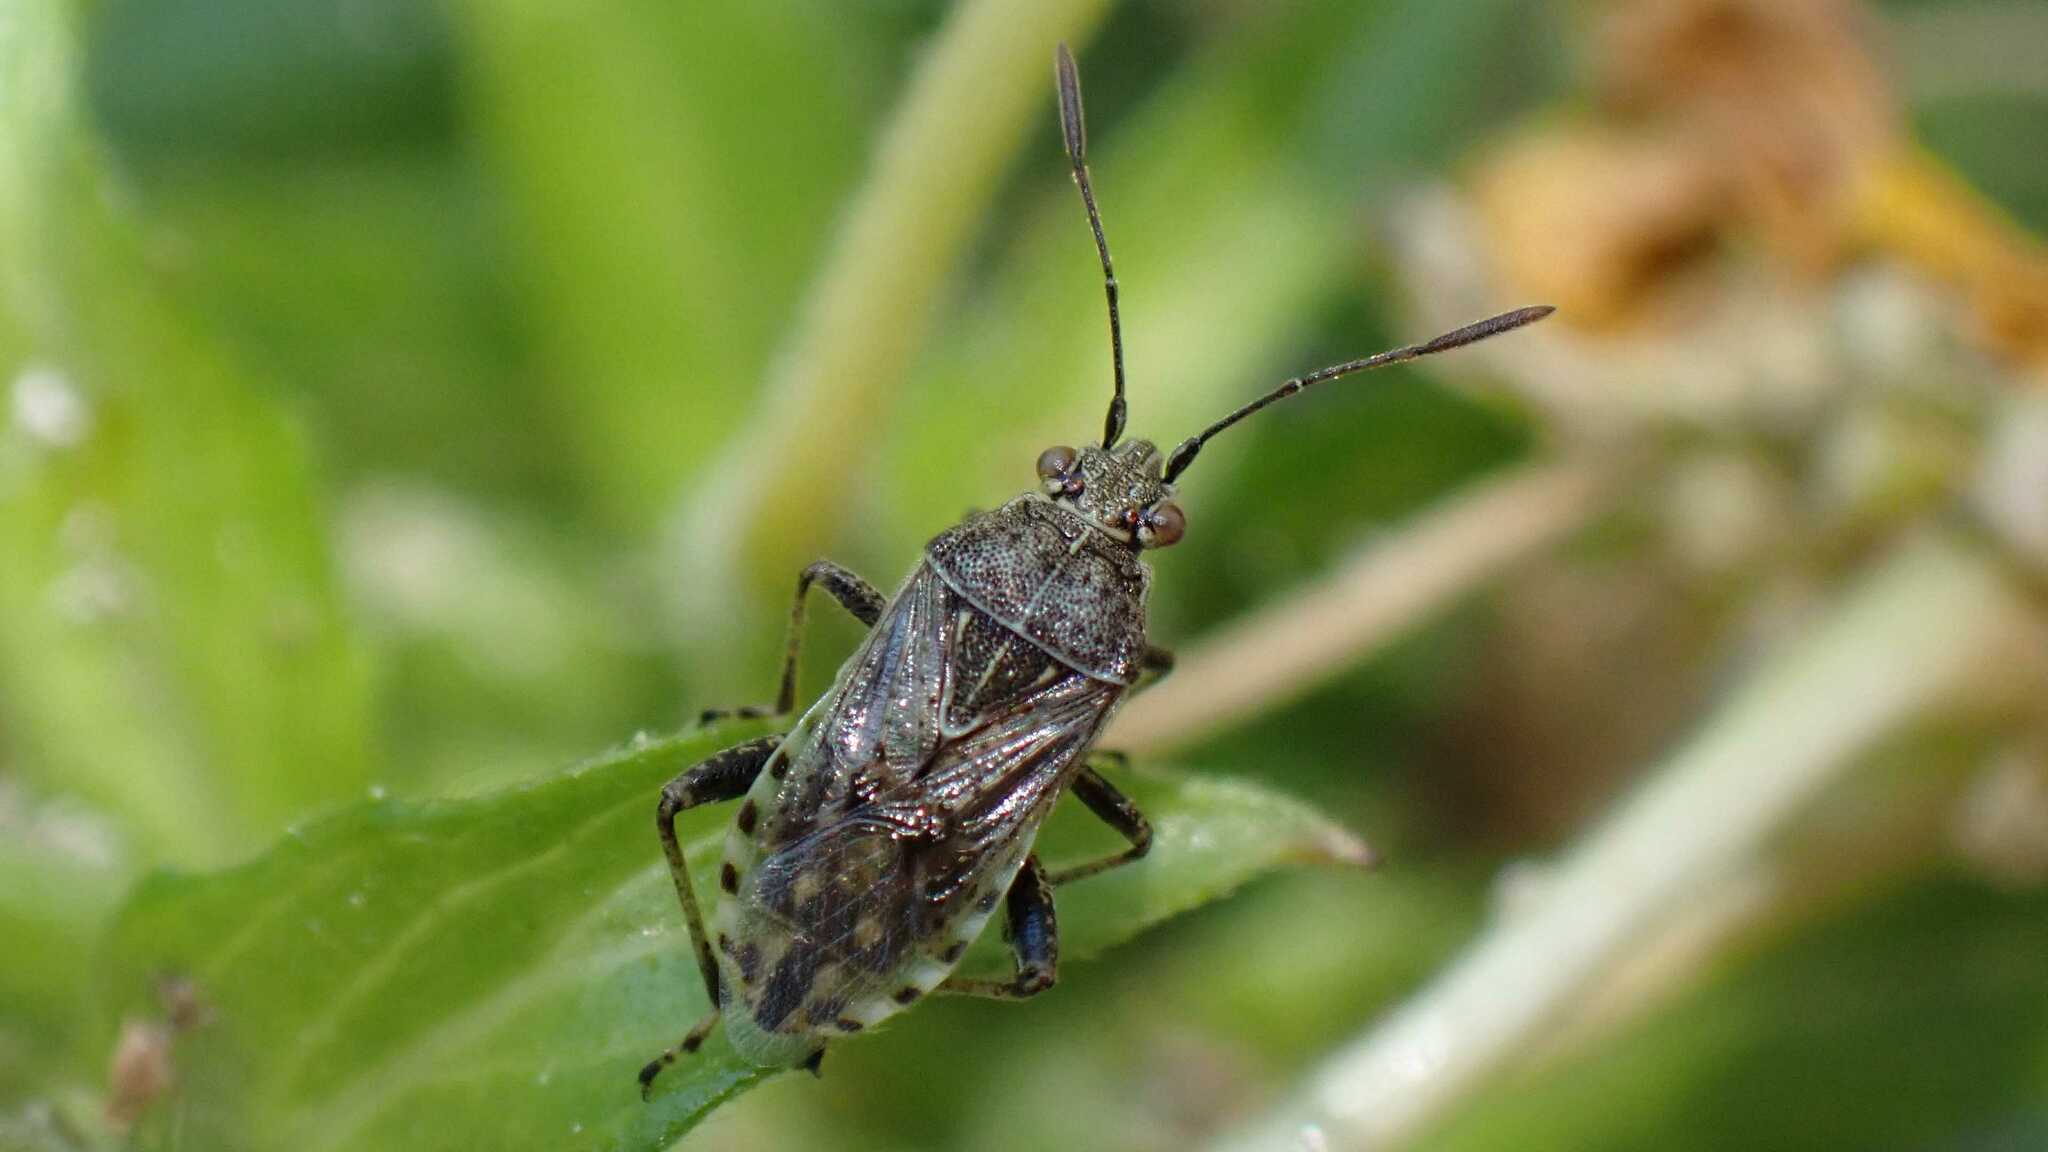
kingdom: Animalia
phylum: Arthropoda
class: Insecta
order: Hemiptera
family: Rhopalidae
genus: Stictopleurus
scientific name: Stictopleurus punctatonervosus
